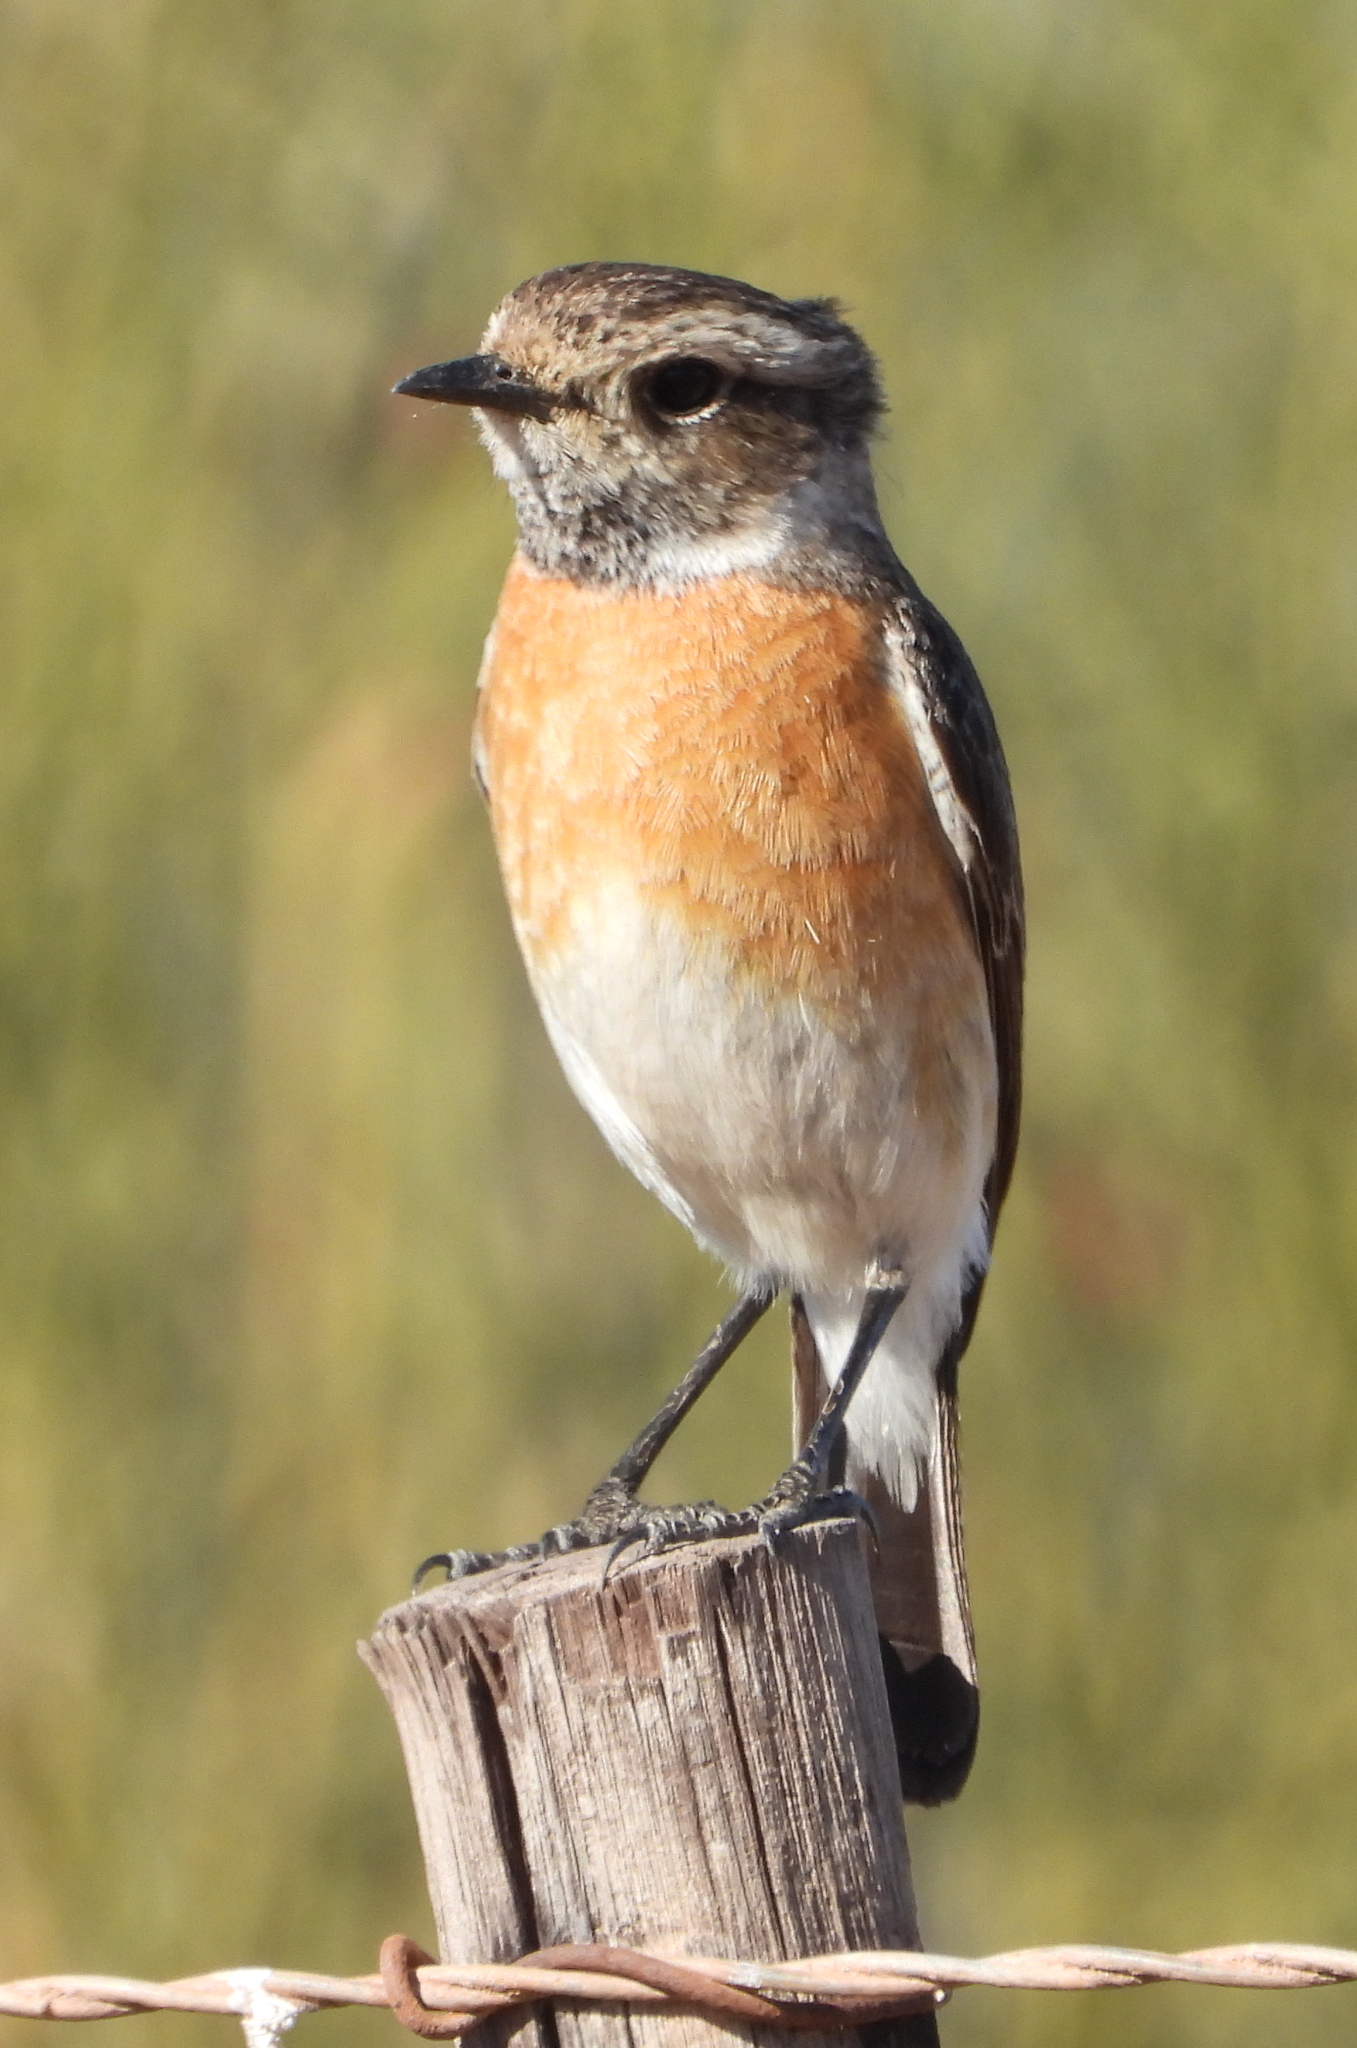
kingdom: Animalia
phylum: Chordata
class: Aves
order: Passeriformes
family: Muscicapidae
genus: Saxicola
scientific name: Saxicola torquatus
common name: African stonechat
